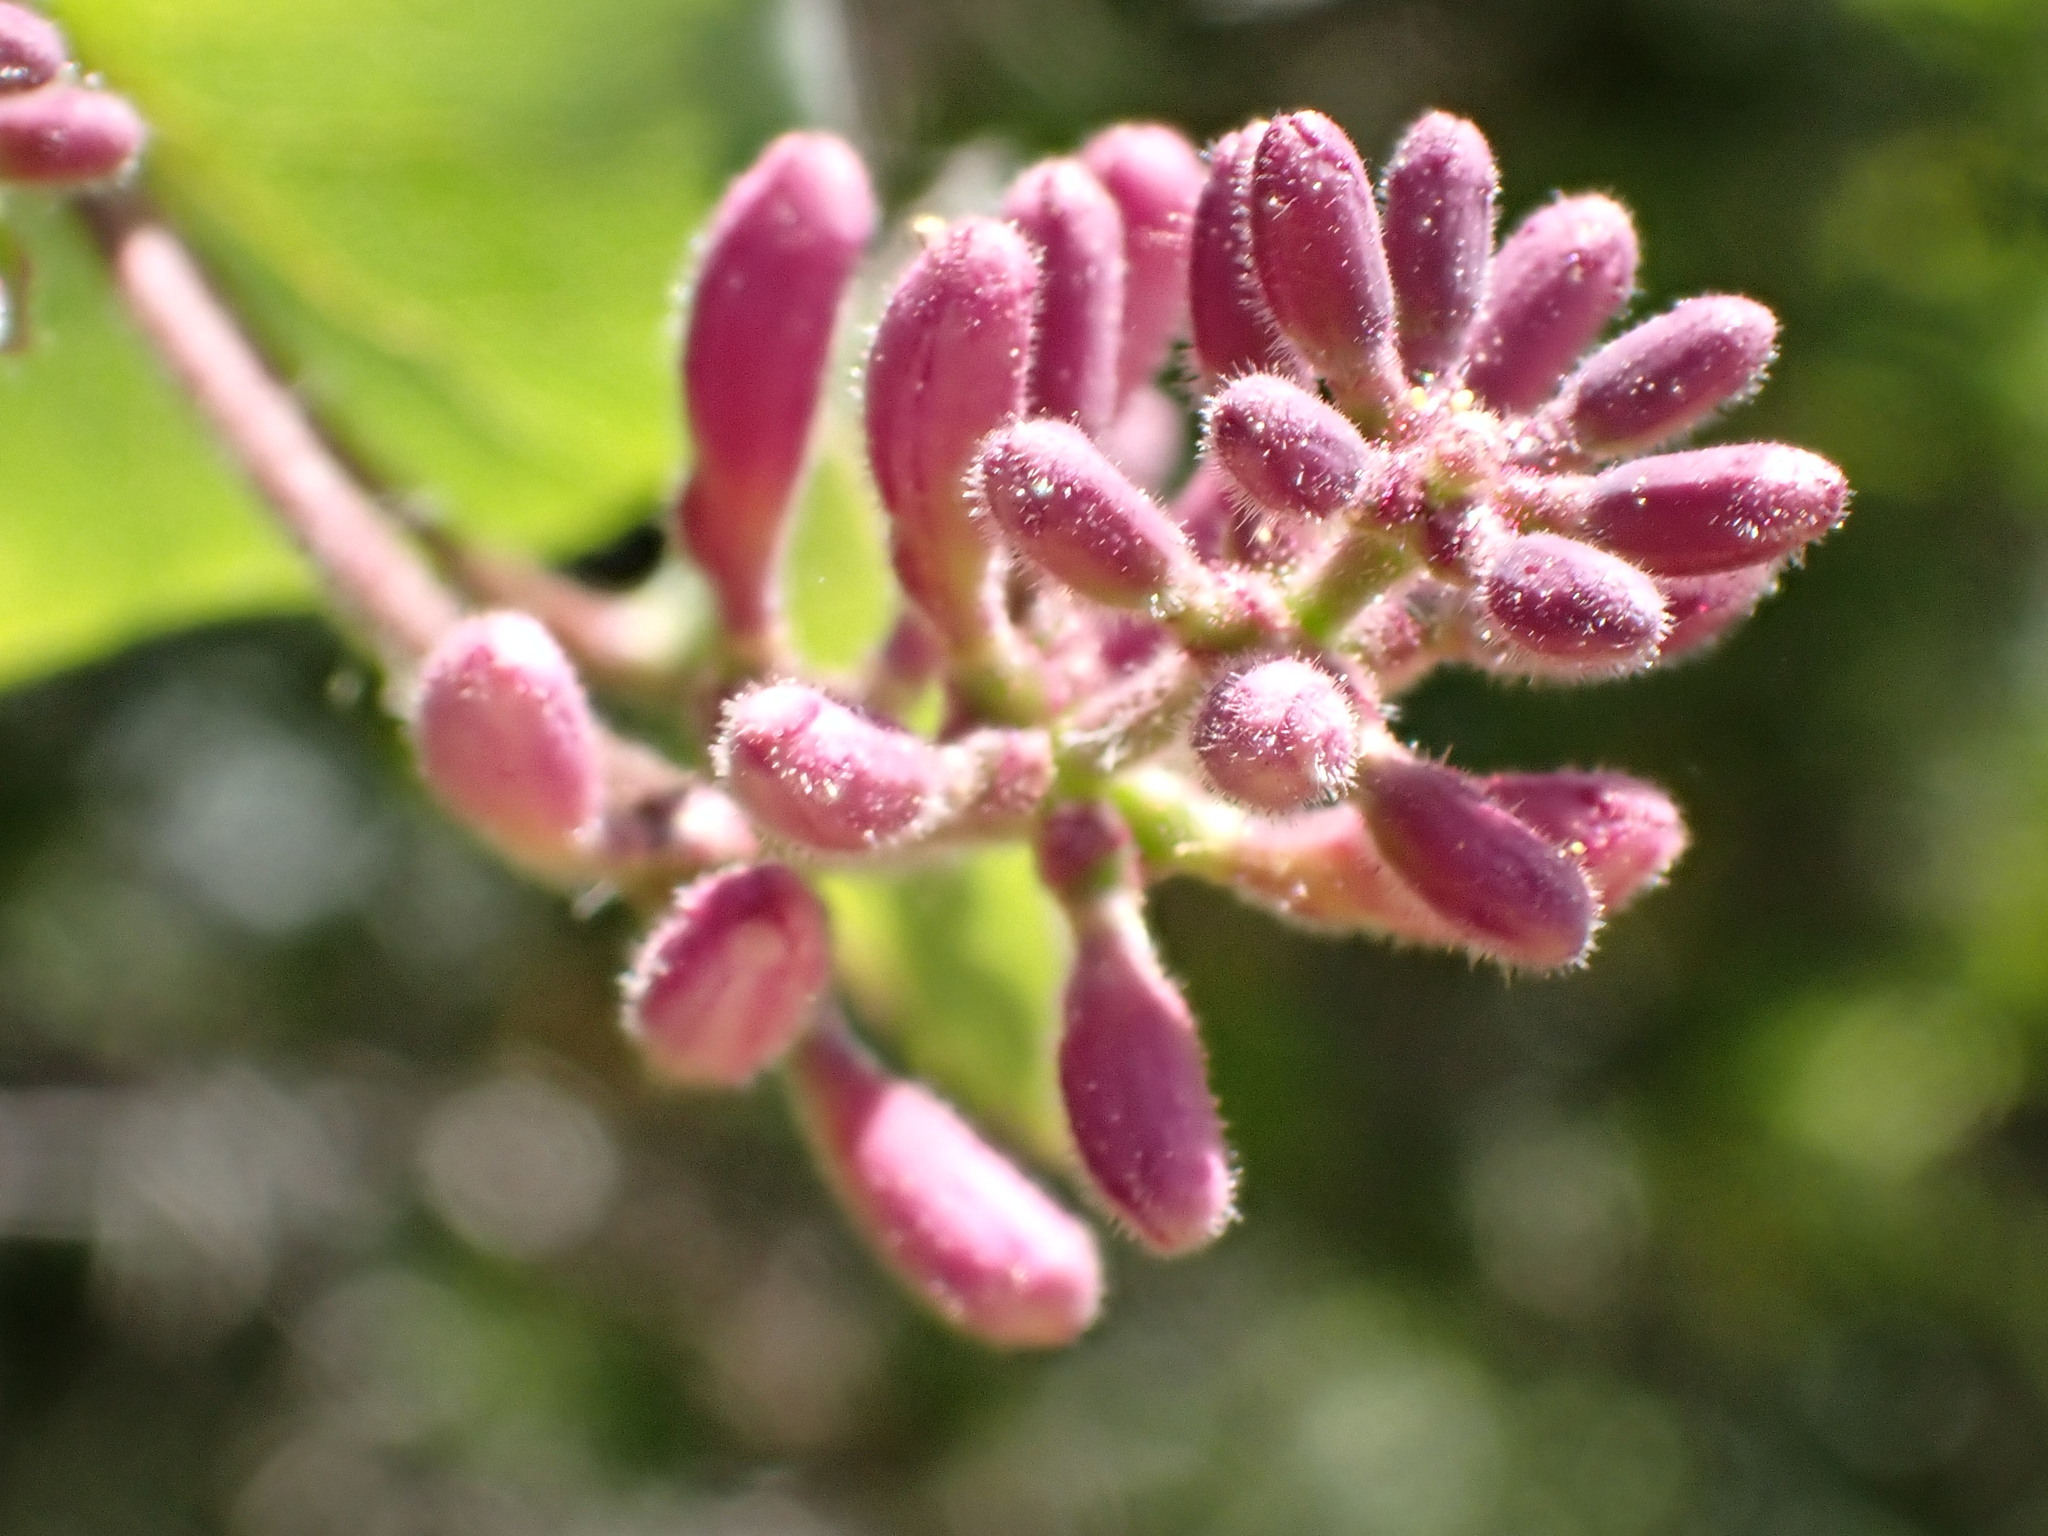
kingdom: Plantae
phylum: Tracheophyta
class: Magnoliopsida
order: Dipsacales
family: Caprifoliaceae
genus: Lonicera
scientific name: Lonicera hispidula
